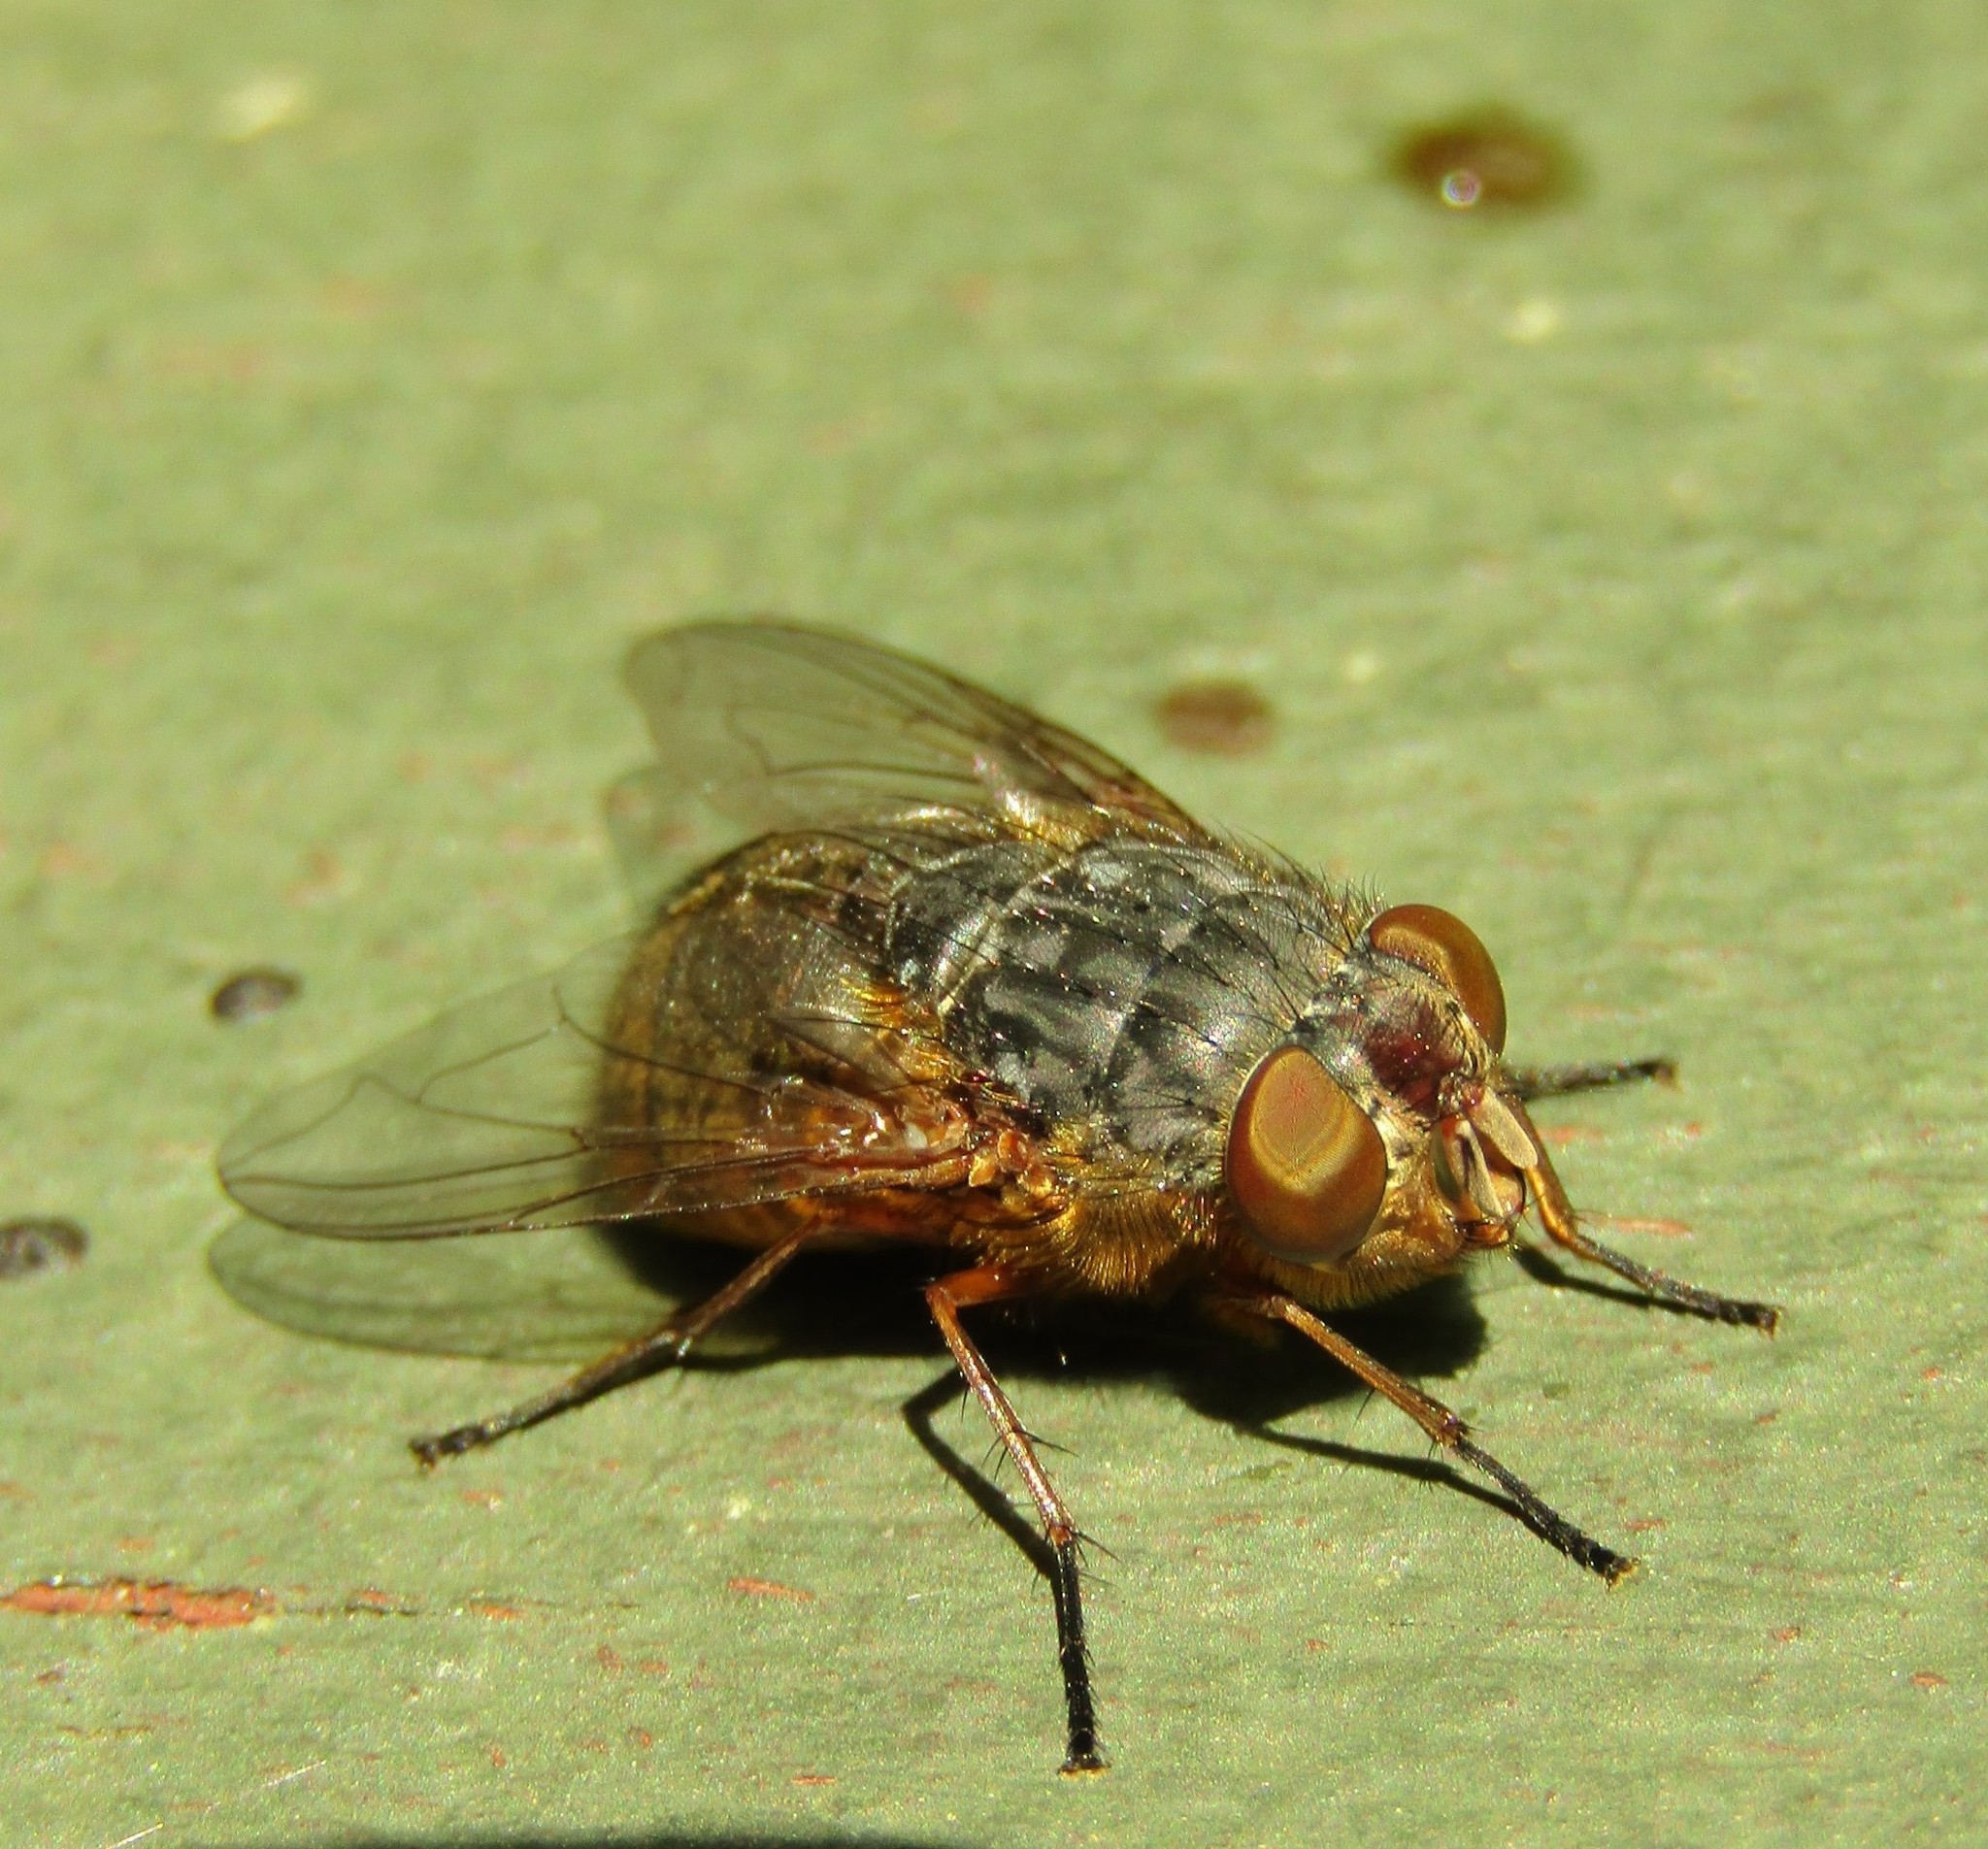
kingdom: Animalia
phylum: Arthropoda
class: Insecta
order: Diptera
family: Calliphoridae
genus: Calliphora
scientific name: Calliphora stygia
